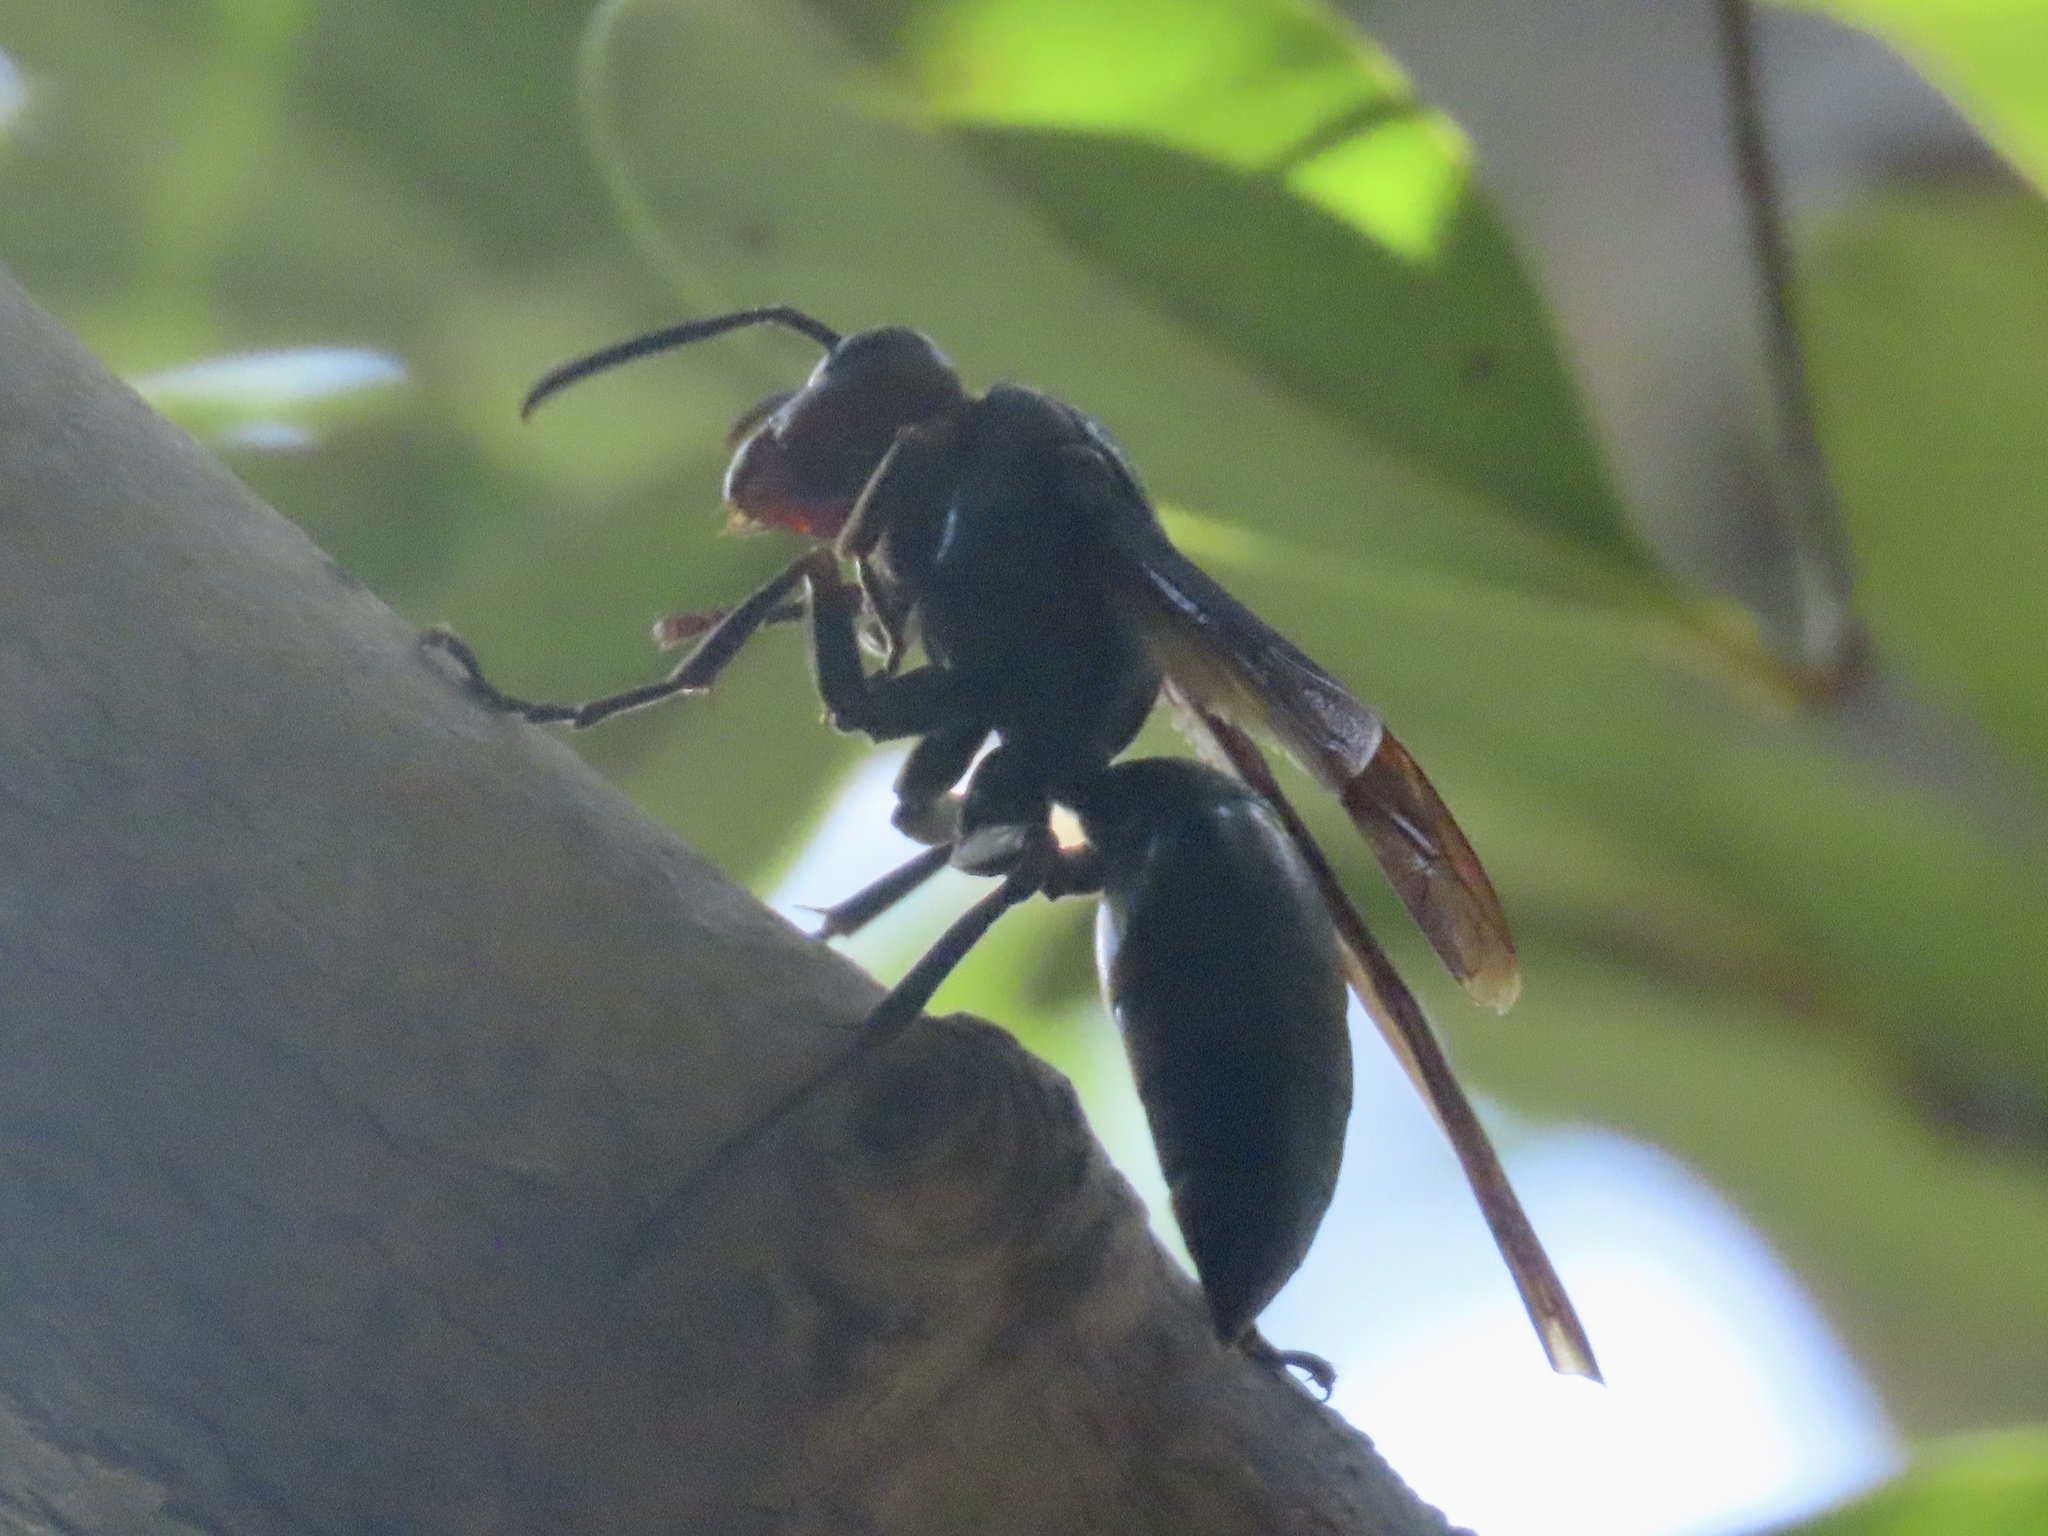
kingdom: Animalia
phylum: Arthropoda
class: Insecta
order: Hymenoptera
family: Eumenidae
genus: Polistes
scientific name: Polistes gigas
